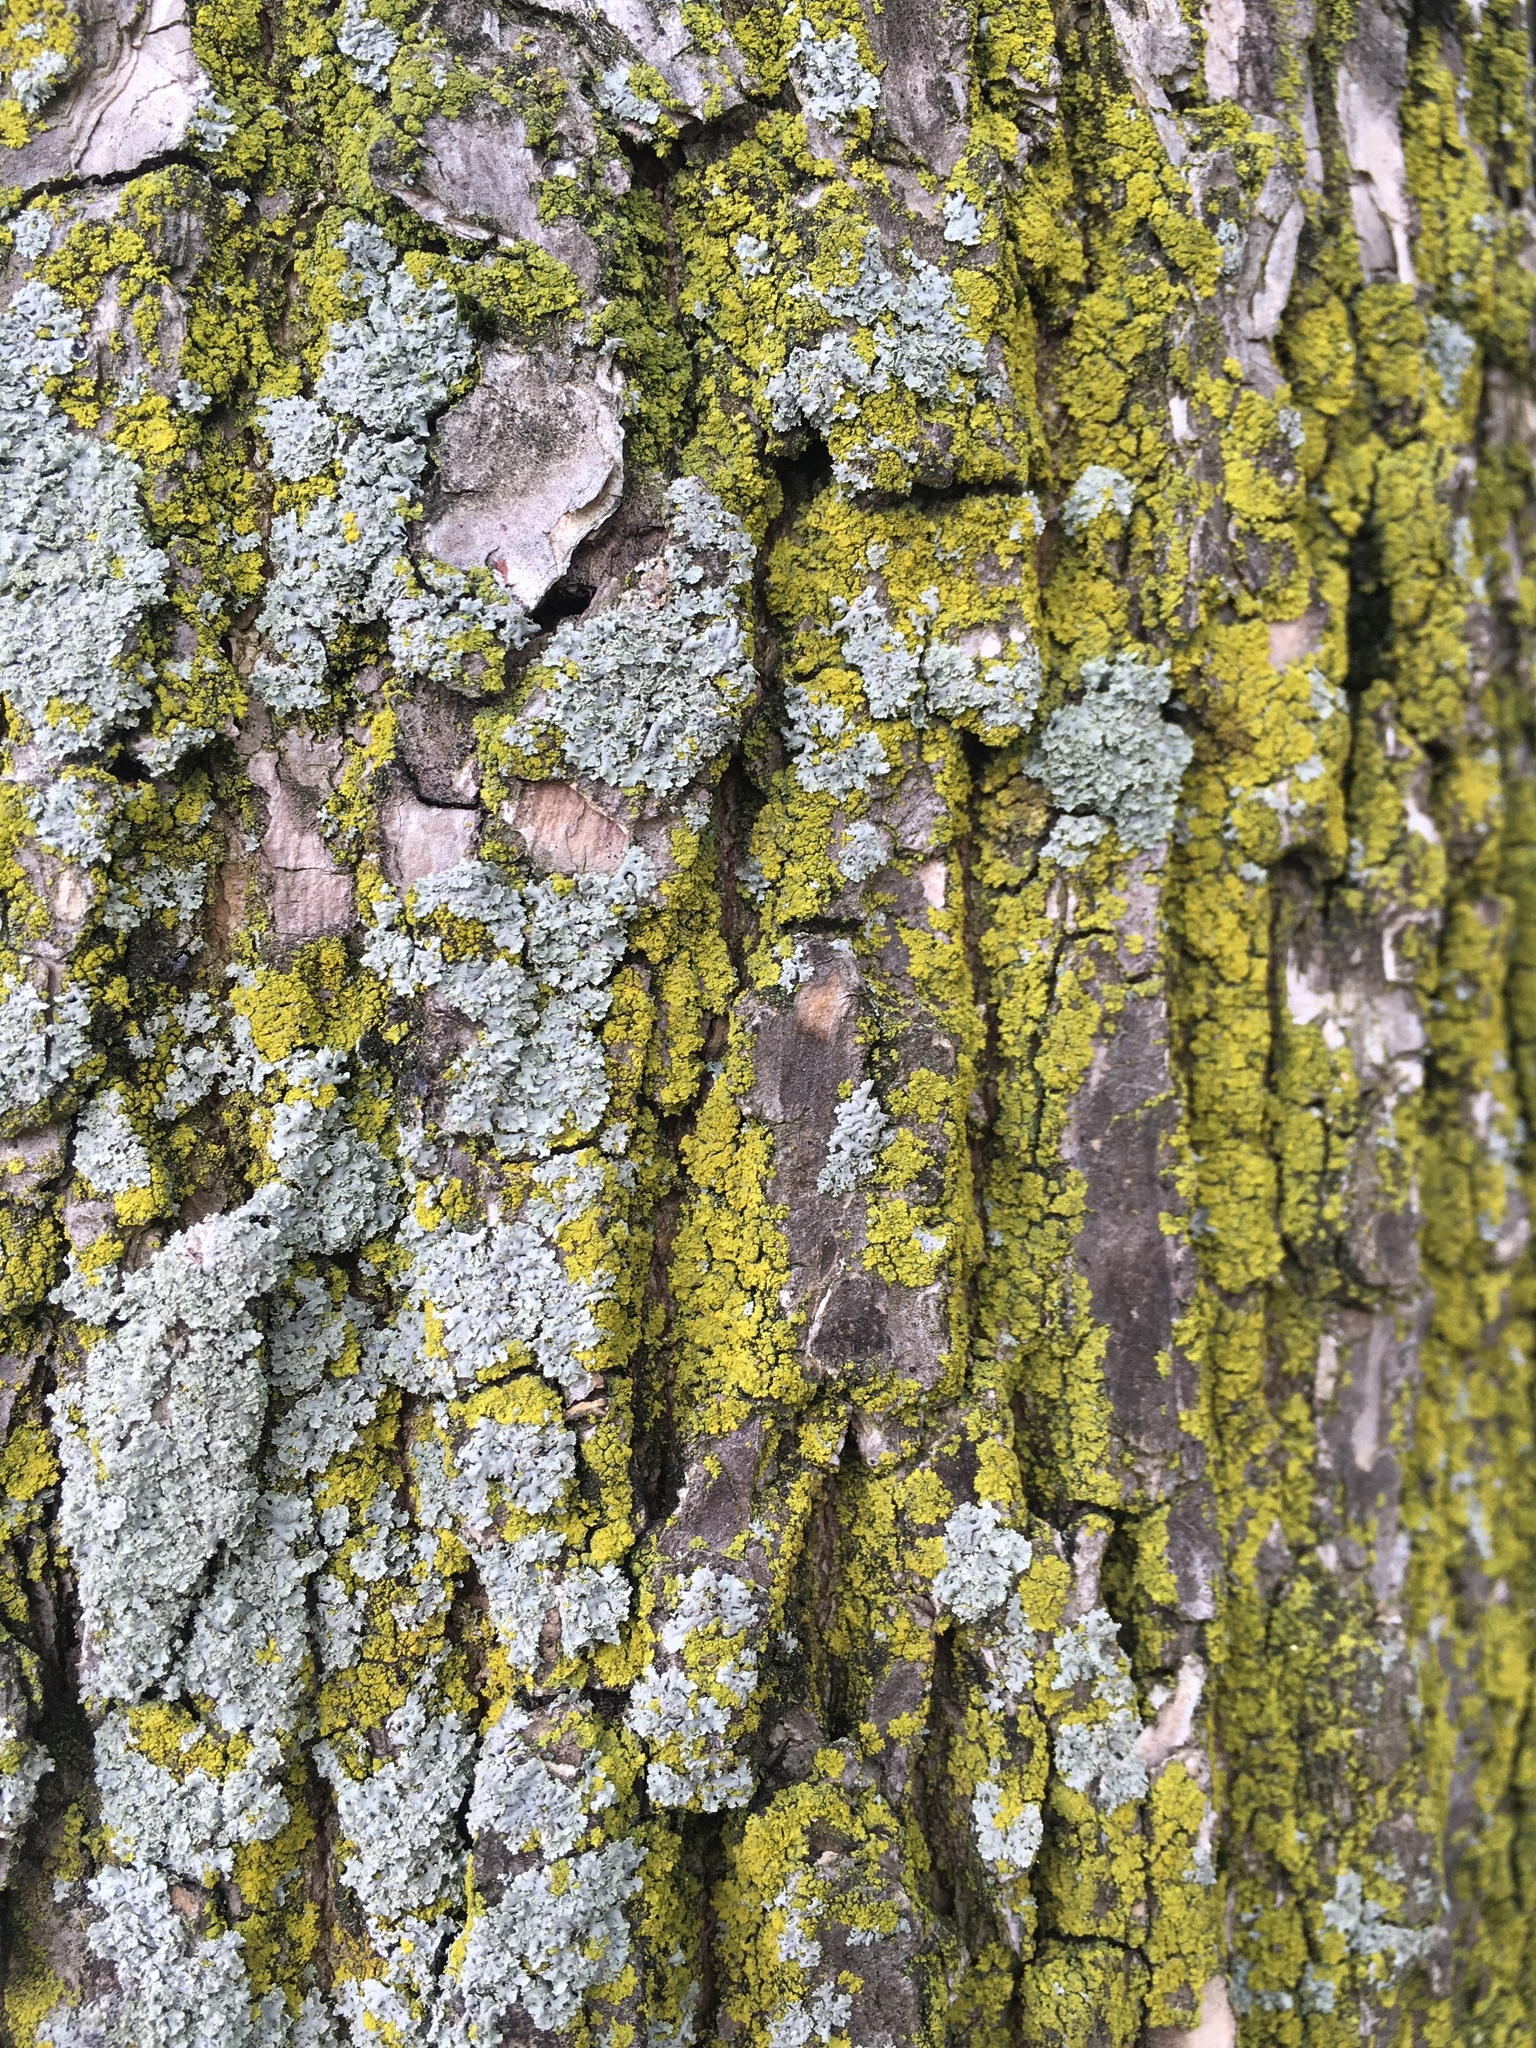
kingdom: Fungi
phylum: Ascomycota
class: Candelariomycetes
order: Candelariales
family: Candelariaceae
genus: Candelaria
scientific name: Candelaria concolor
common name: Candleflame lichen
